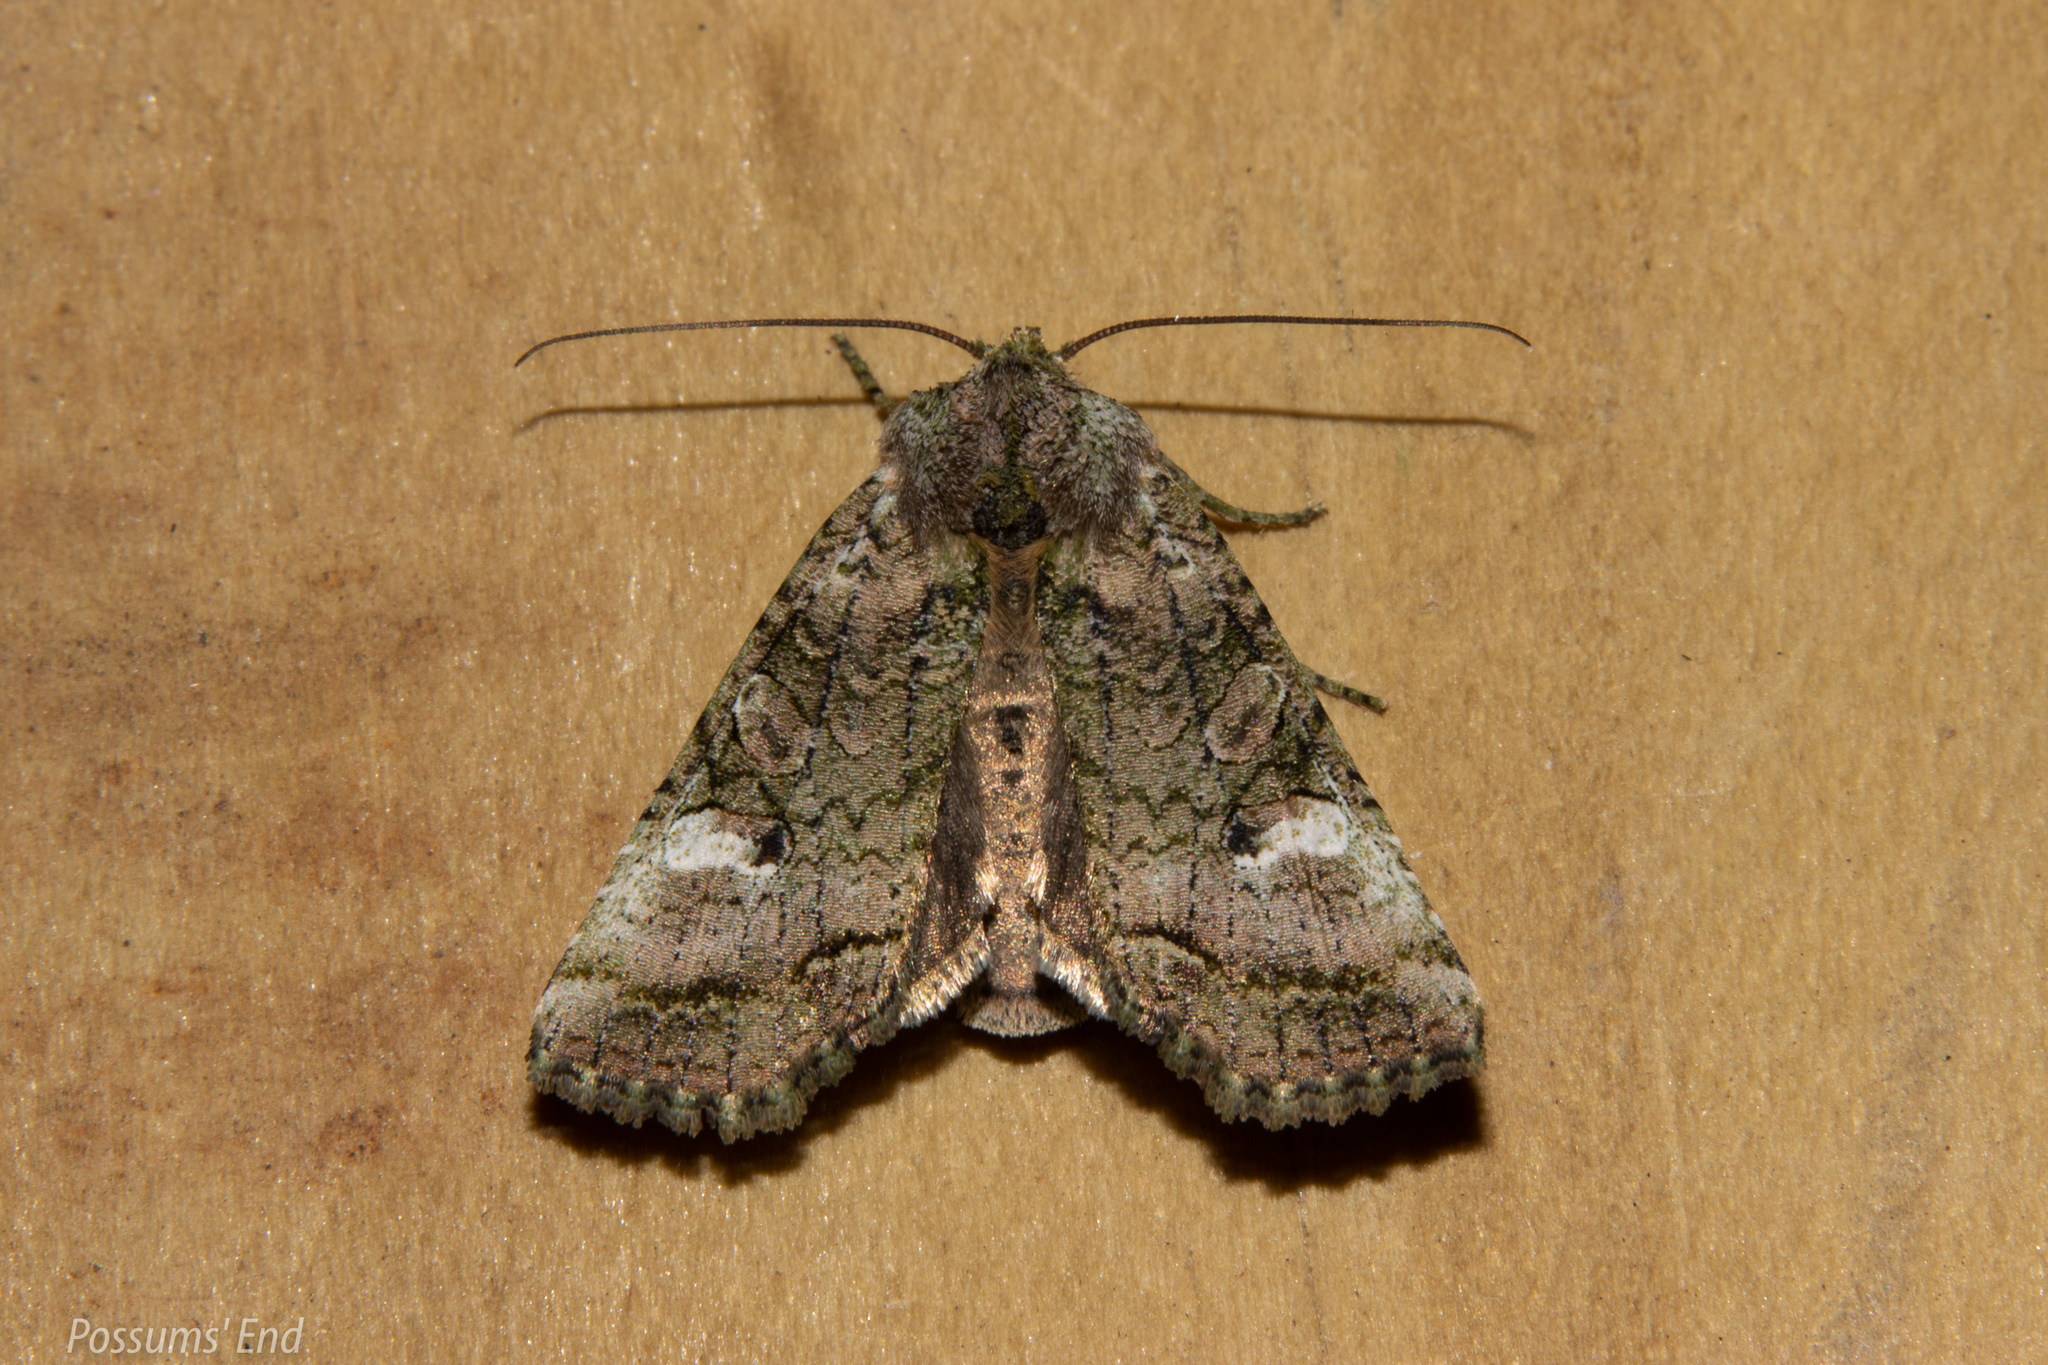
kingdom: Animalia
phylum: Arthropoda
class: Insecta
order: Lepidoptera
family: Noctuidae
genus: Meterana
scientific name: Meterana levis
